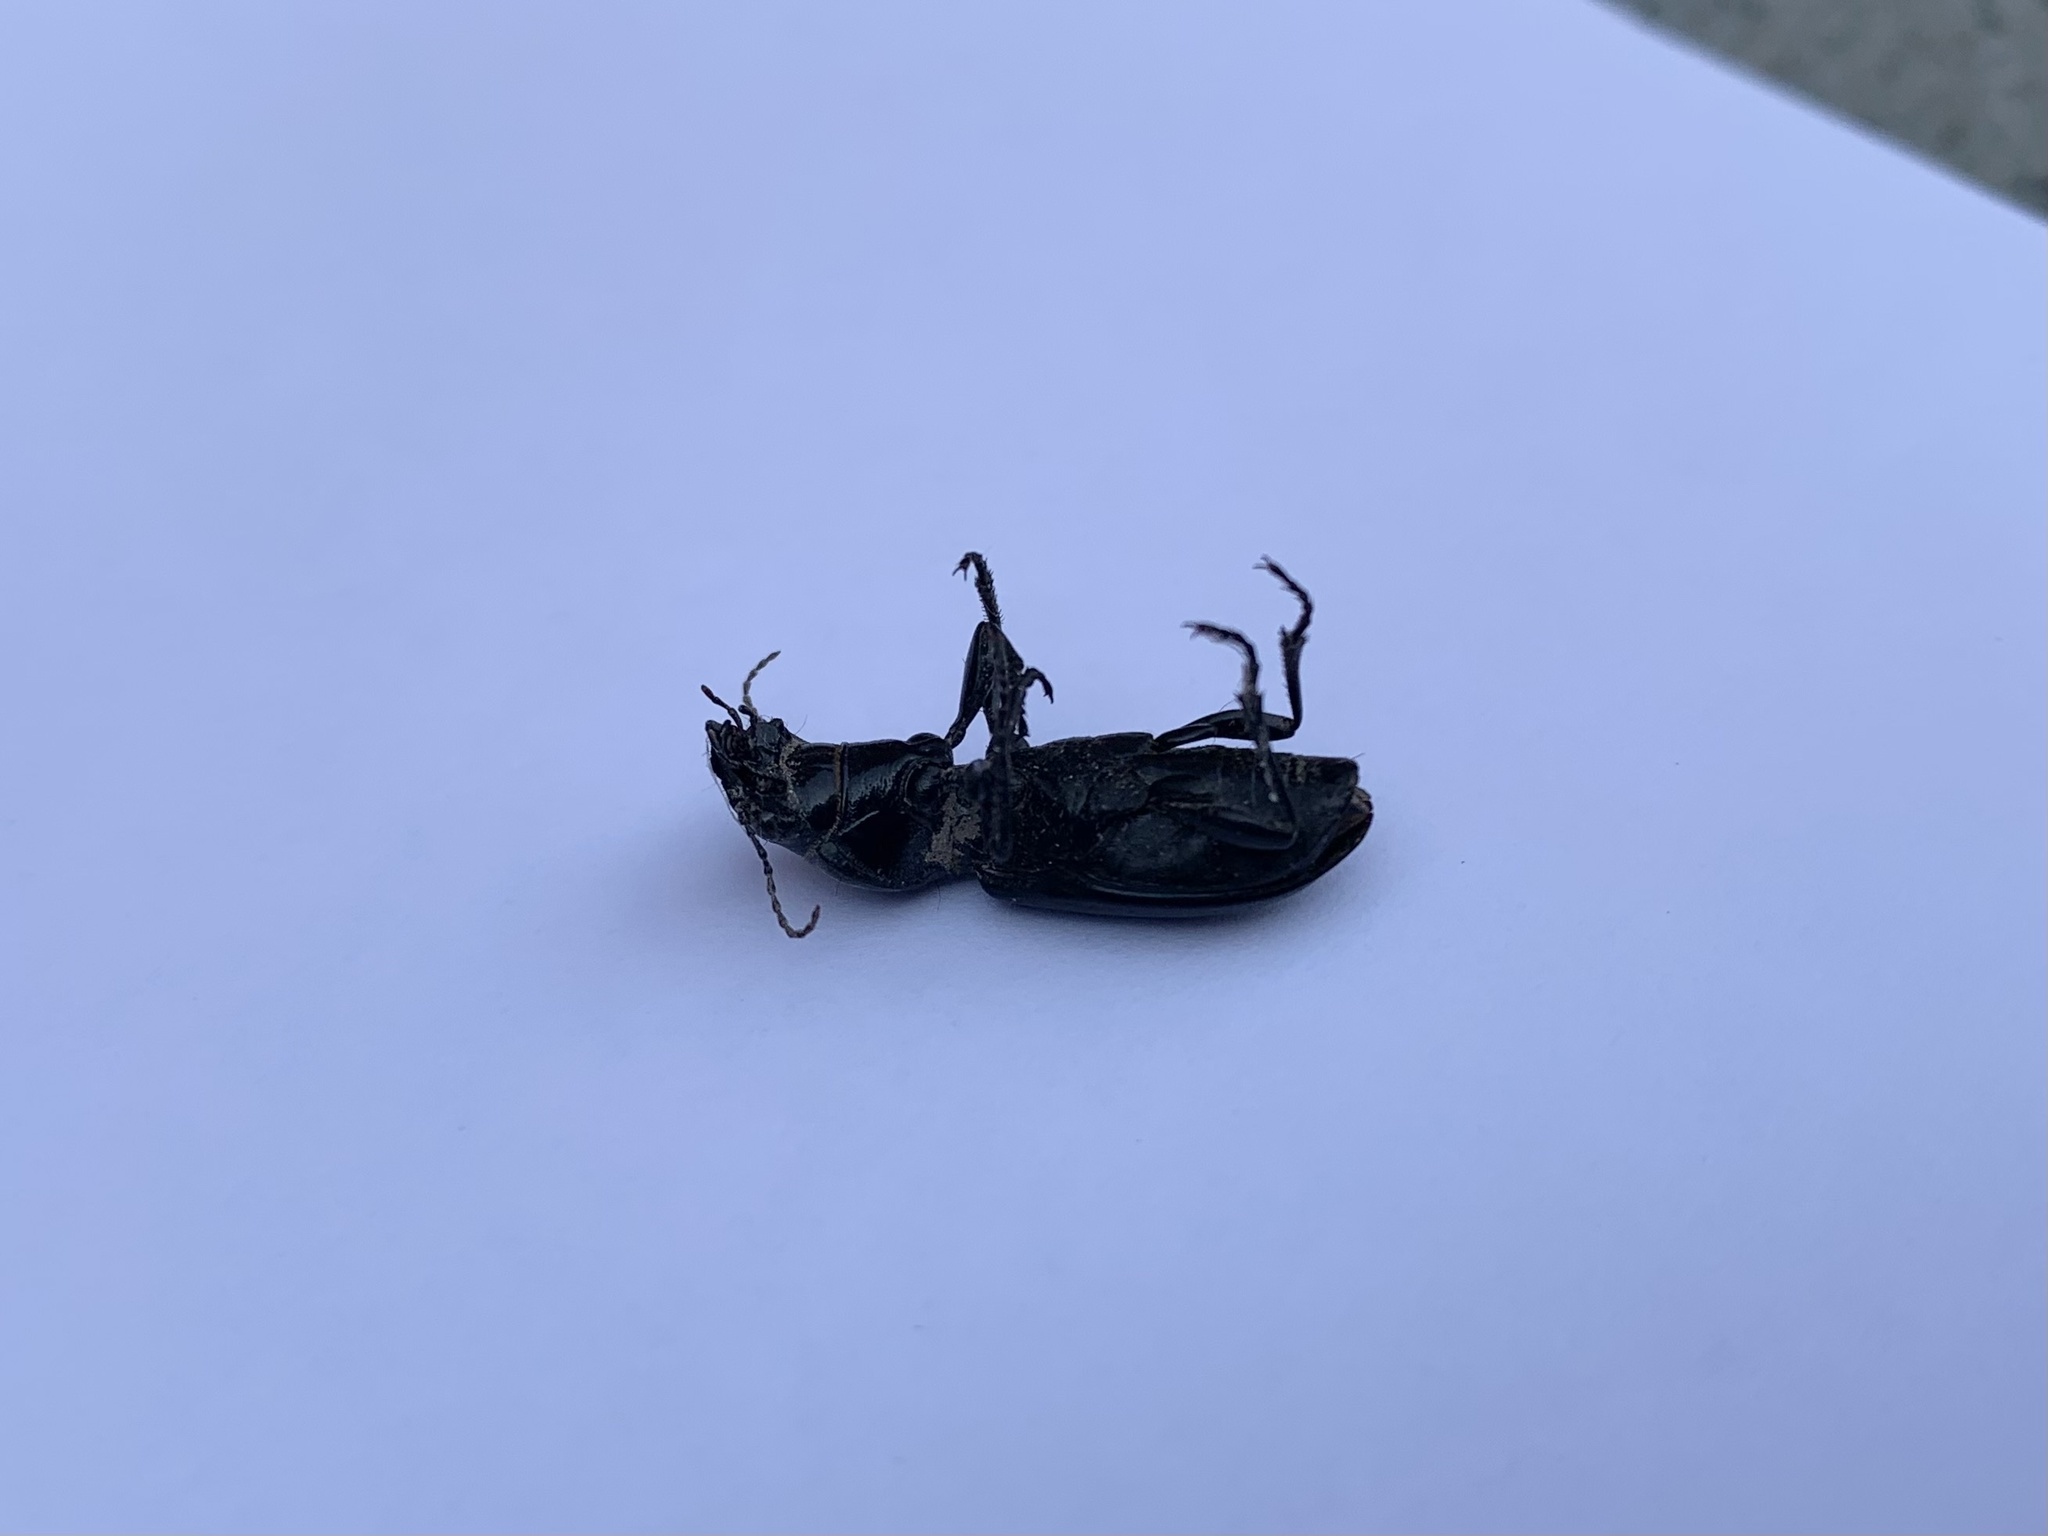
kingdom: Animalia
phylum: Arthropoda
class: Insecta
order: Coleoptera
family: Carabidae
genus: Broscus
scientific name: Broscus cephalotes
